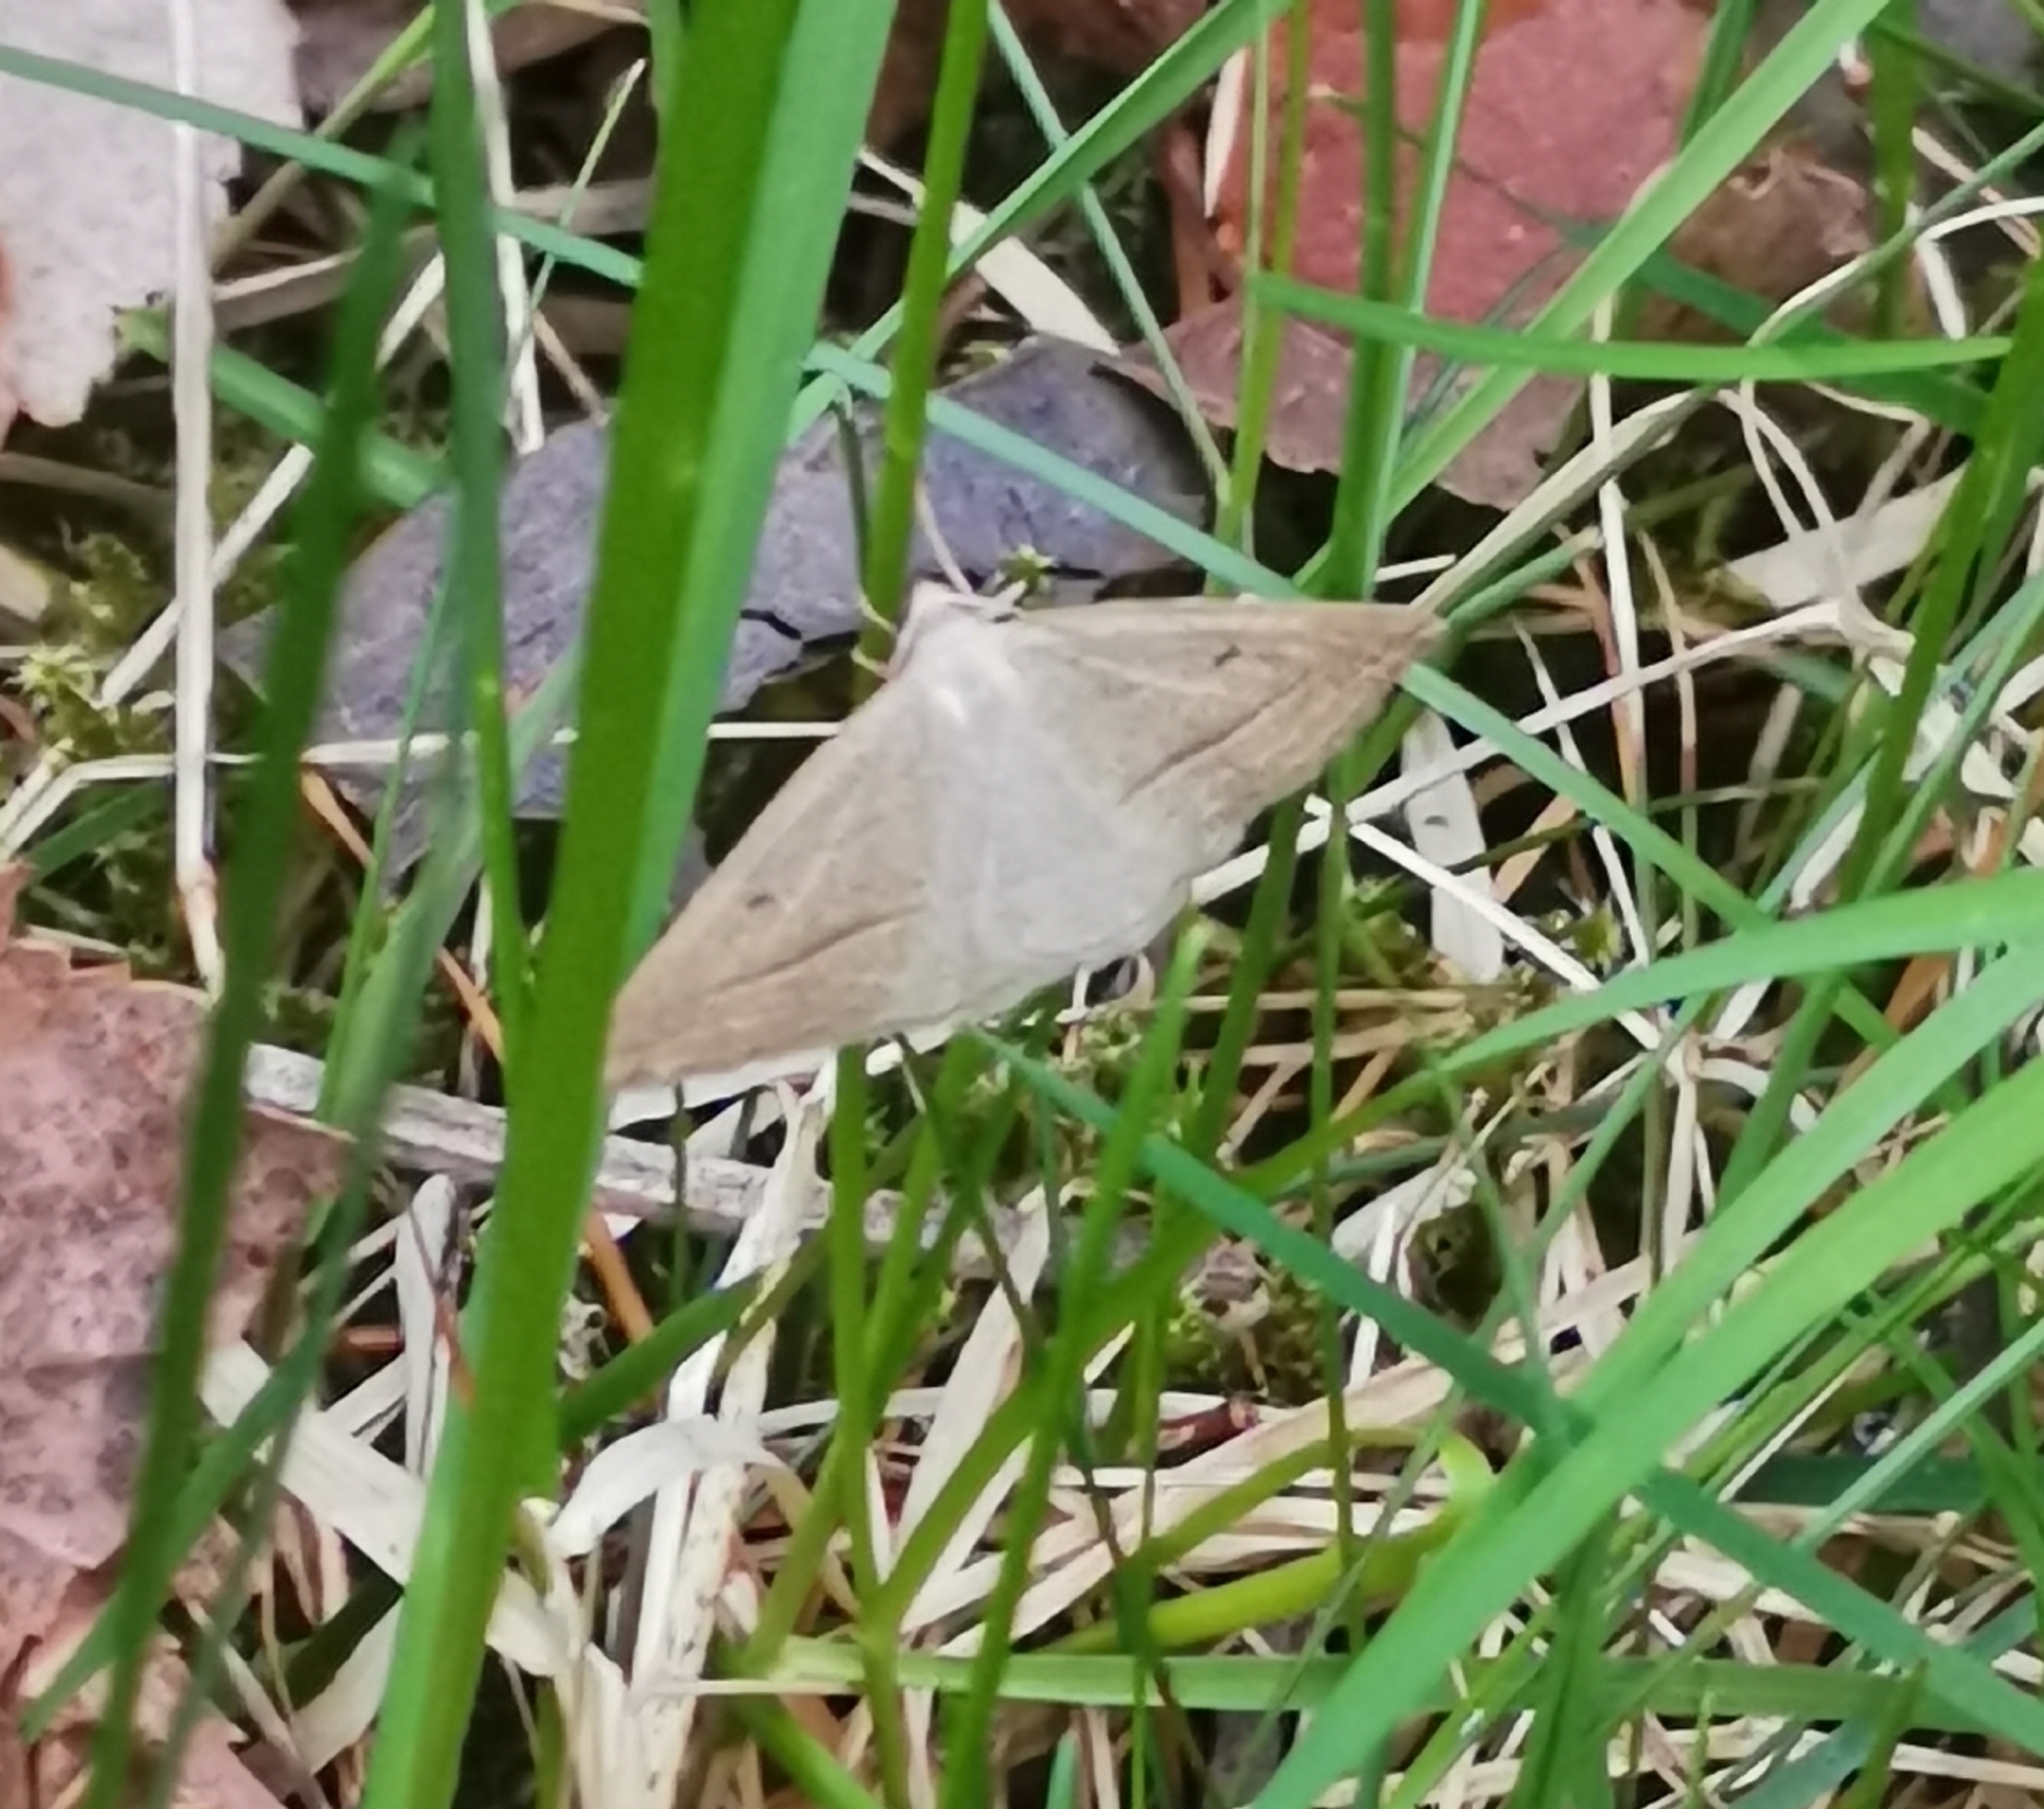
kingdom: Animalia
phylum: Arthropoda
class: Insecta
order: Lepidoptera
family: Pterophoridae
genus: Pterophorus
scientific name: Pterophorus Petrophora chlorosata
